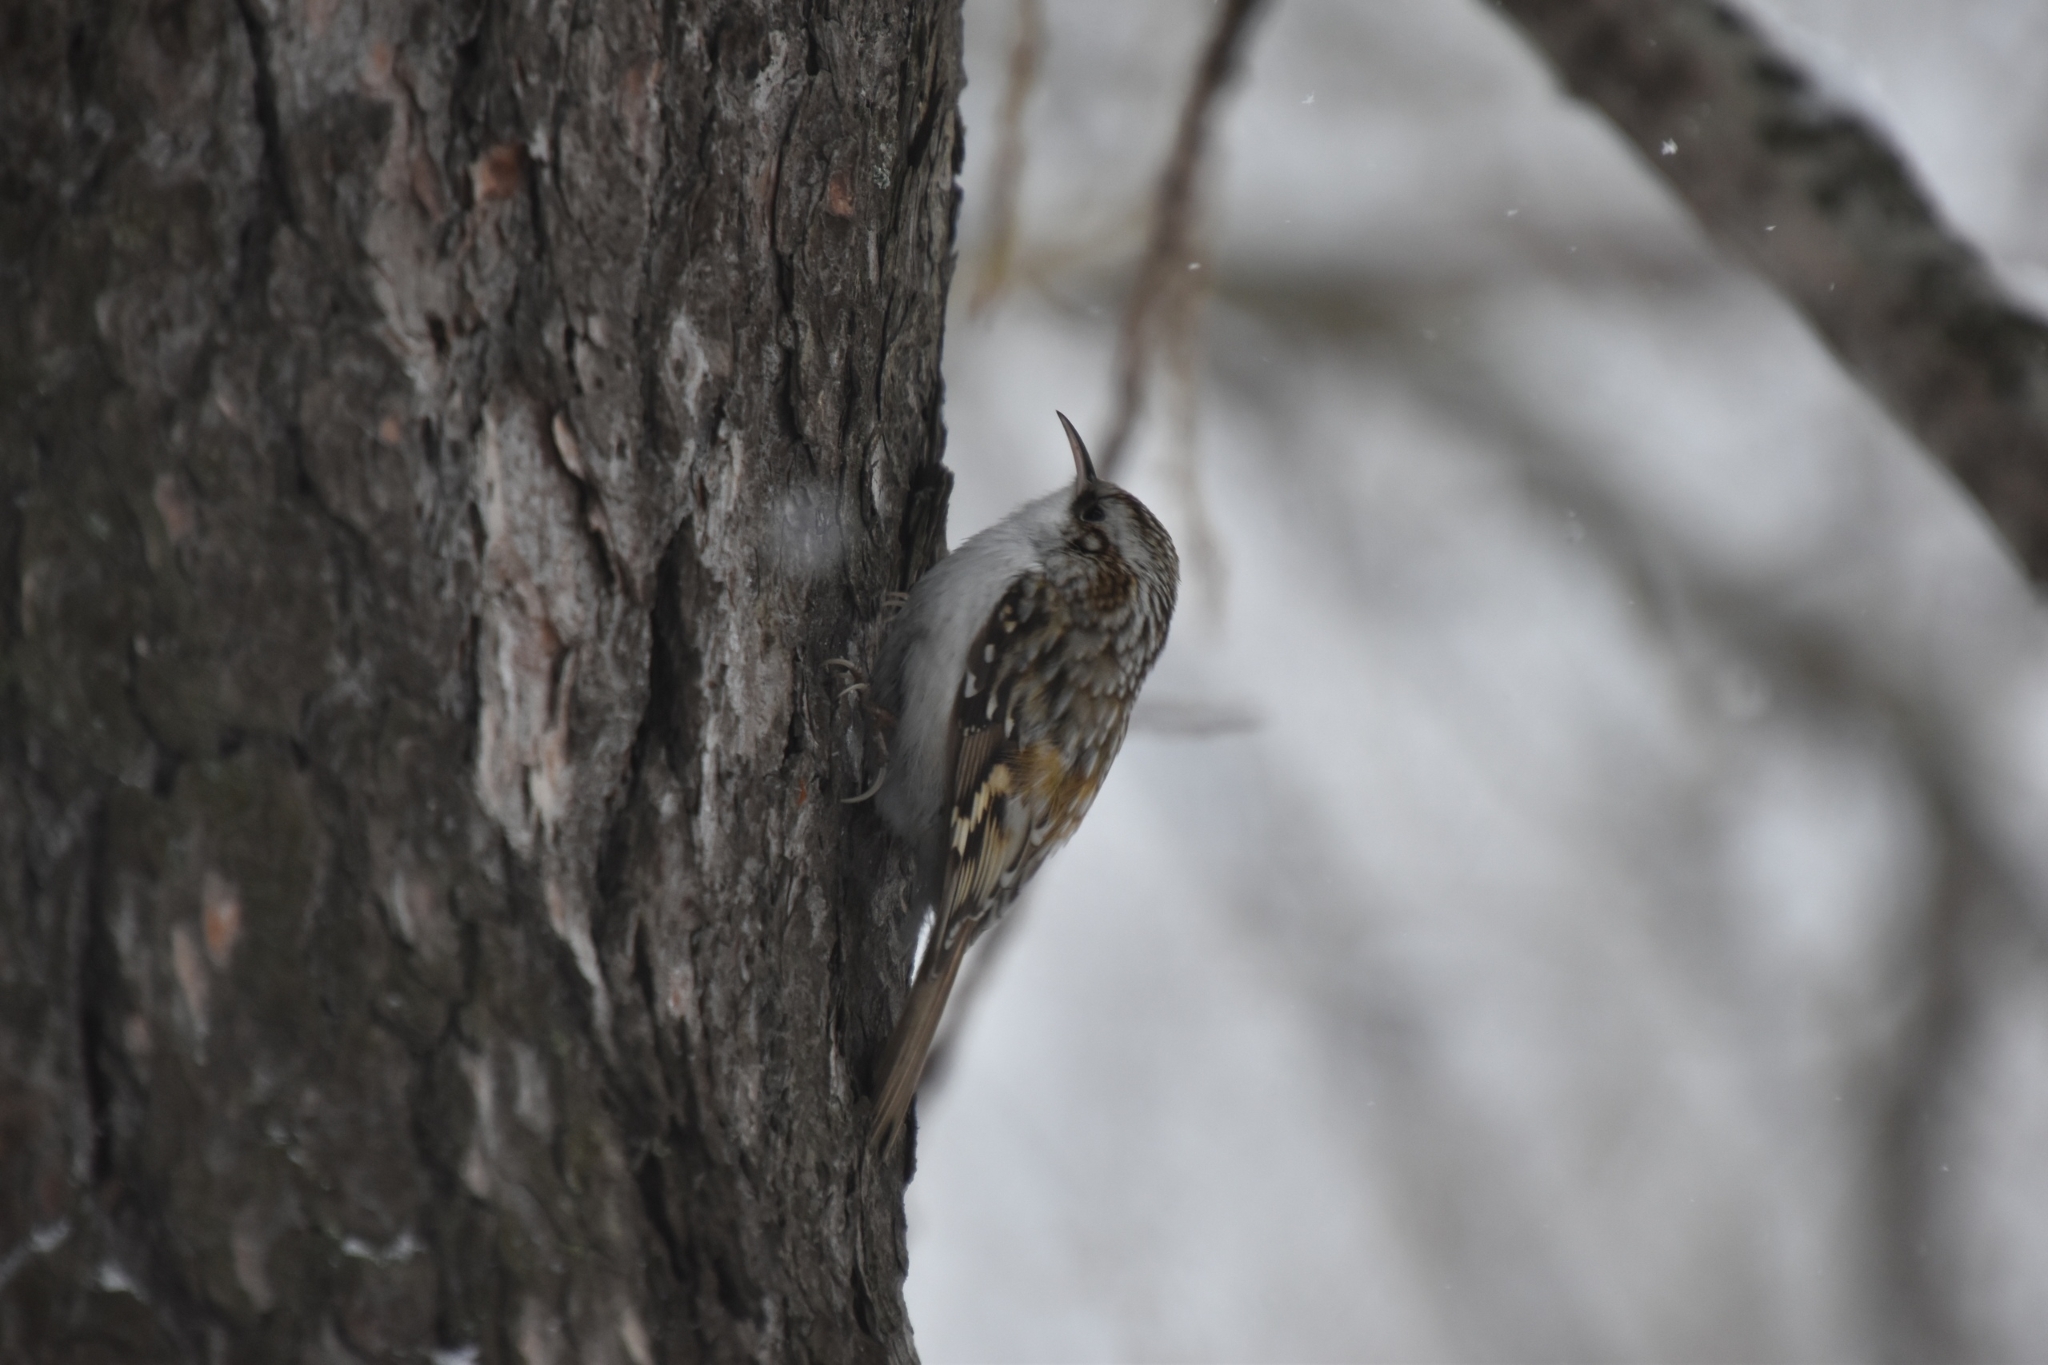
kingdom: Animalia
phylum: Chordata
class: Aves
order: Passeriformes
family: Certhiidae
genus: Certhia
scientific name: Certhia familiaris
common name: Eurasian treecreeper
